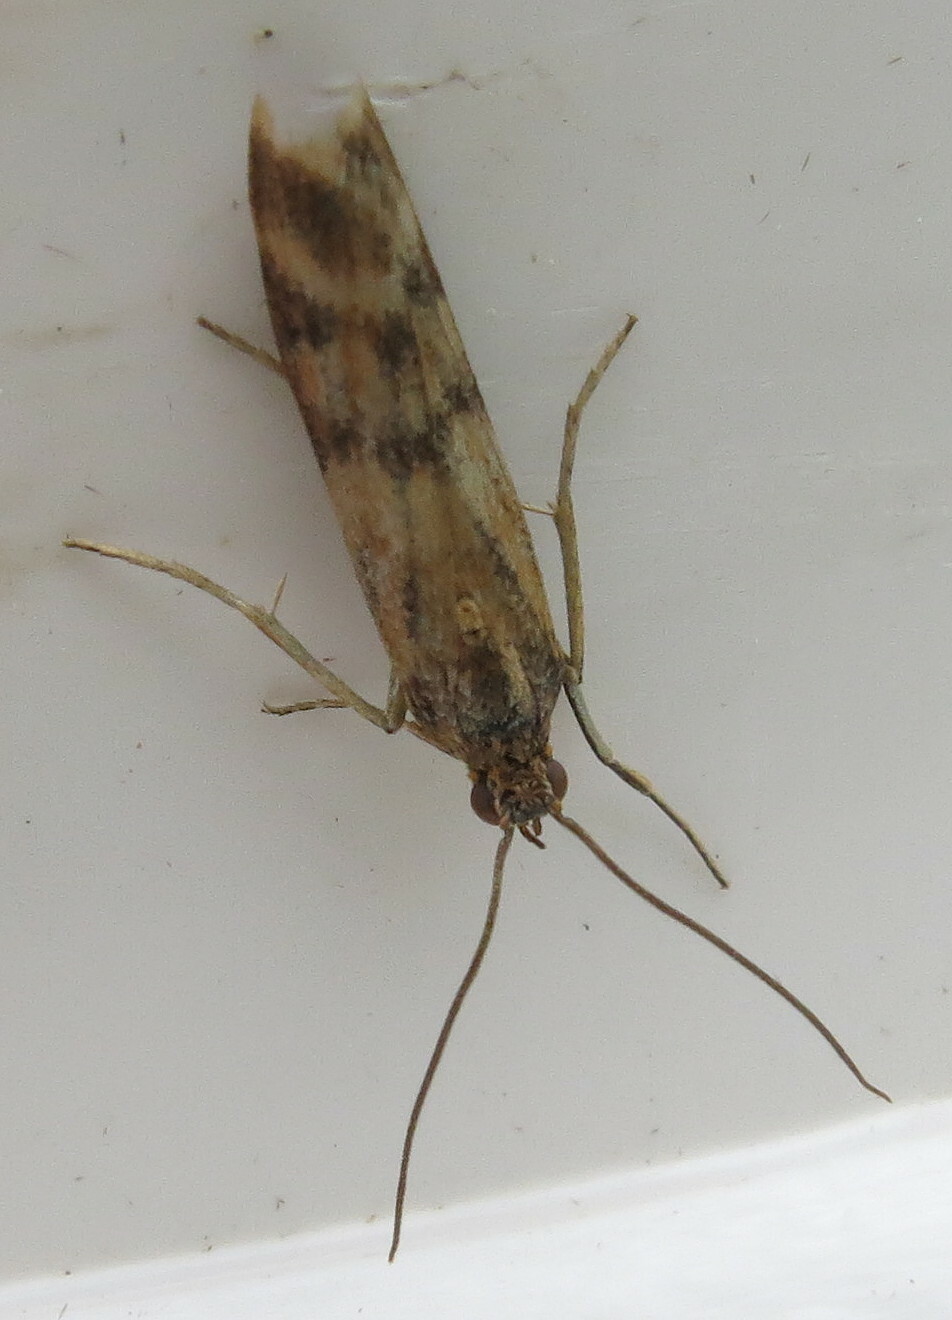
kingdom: Animalia
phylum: Arthropoda
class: Insecta
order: Lepidoptera
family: Pyralidae
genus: Homoeosoma
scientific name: Homoeosoma sinuella
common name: Twin-barred knot-horn
